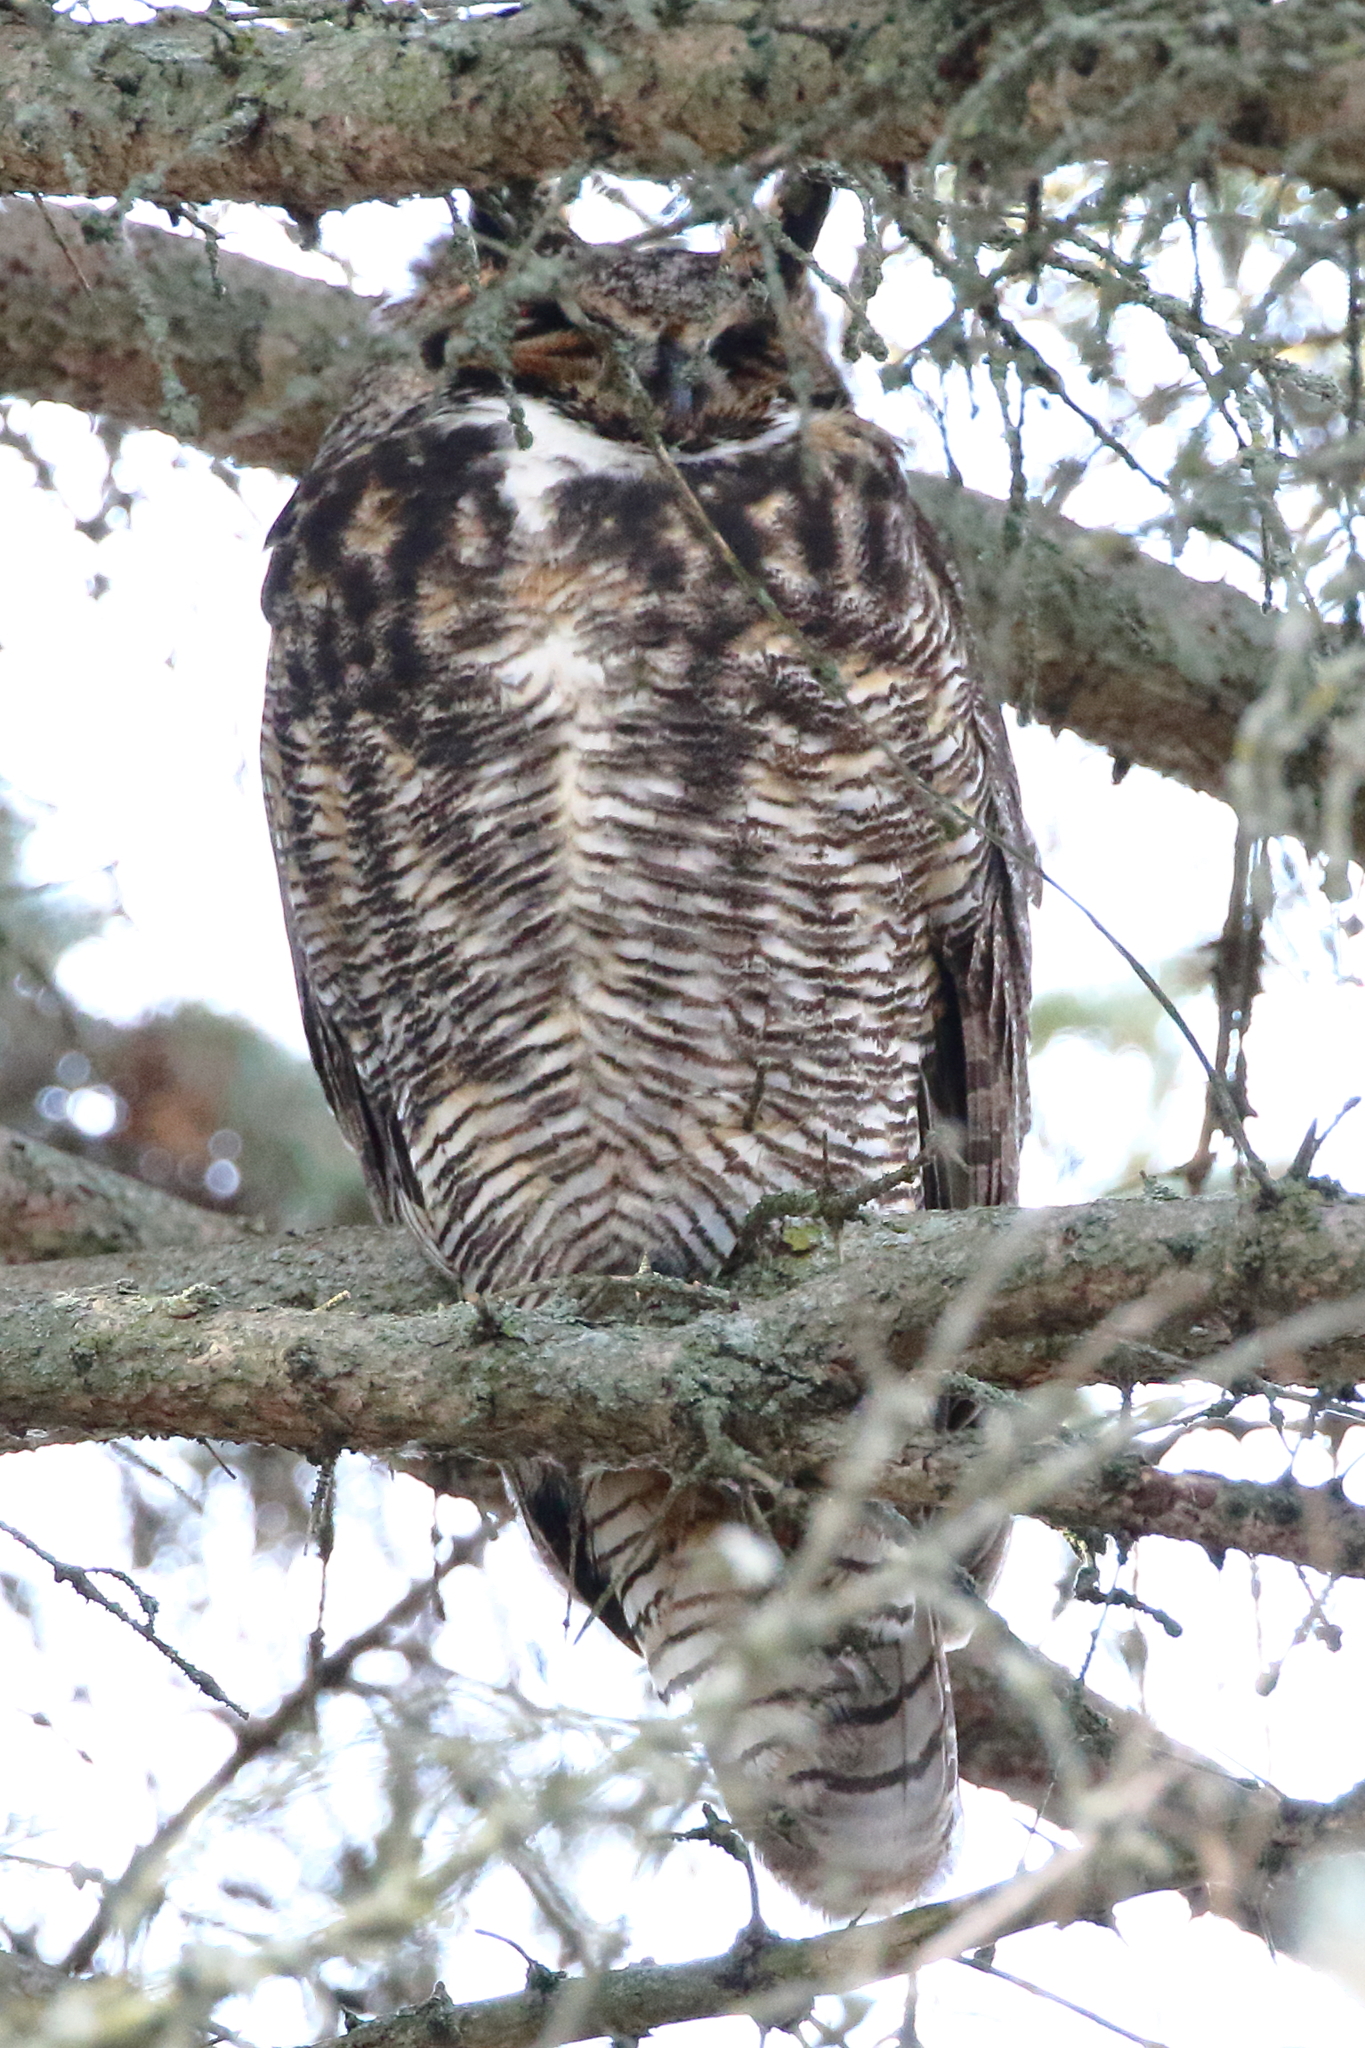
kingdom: Animalia
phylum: Chordata
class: Aves
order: Strigiformes
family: Strigidae
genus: Bubo
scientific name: Bubo virginianus
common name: Great horned owl
